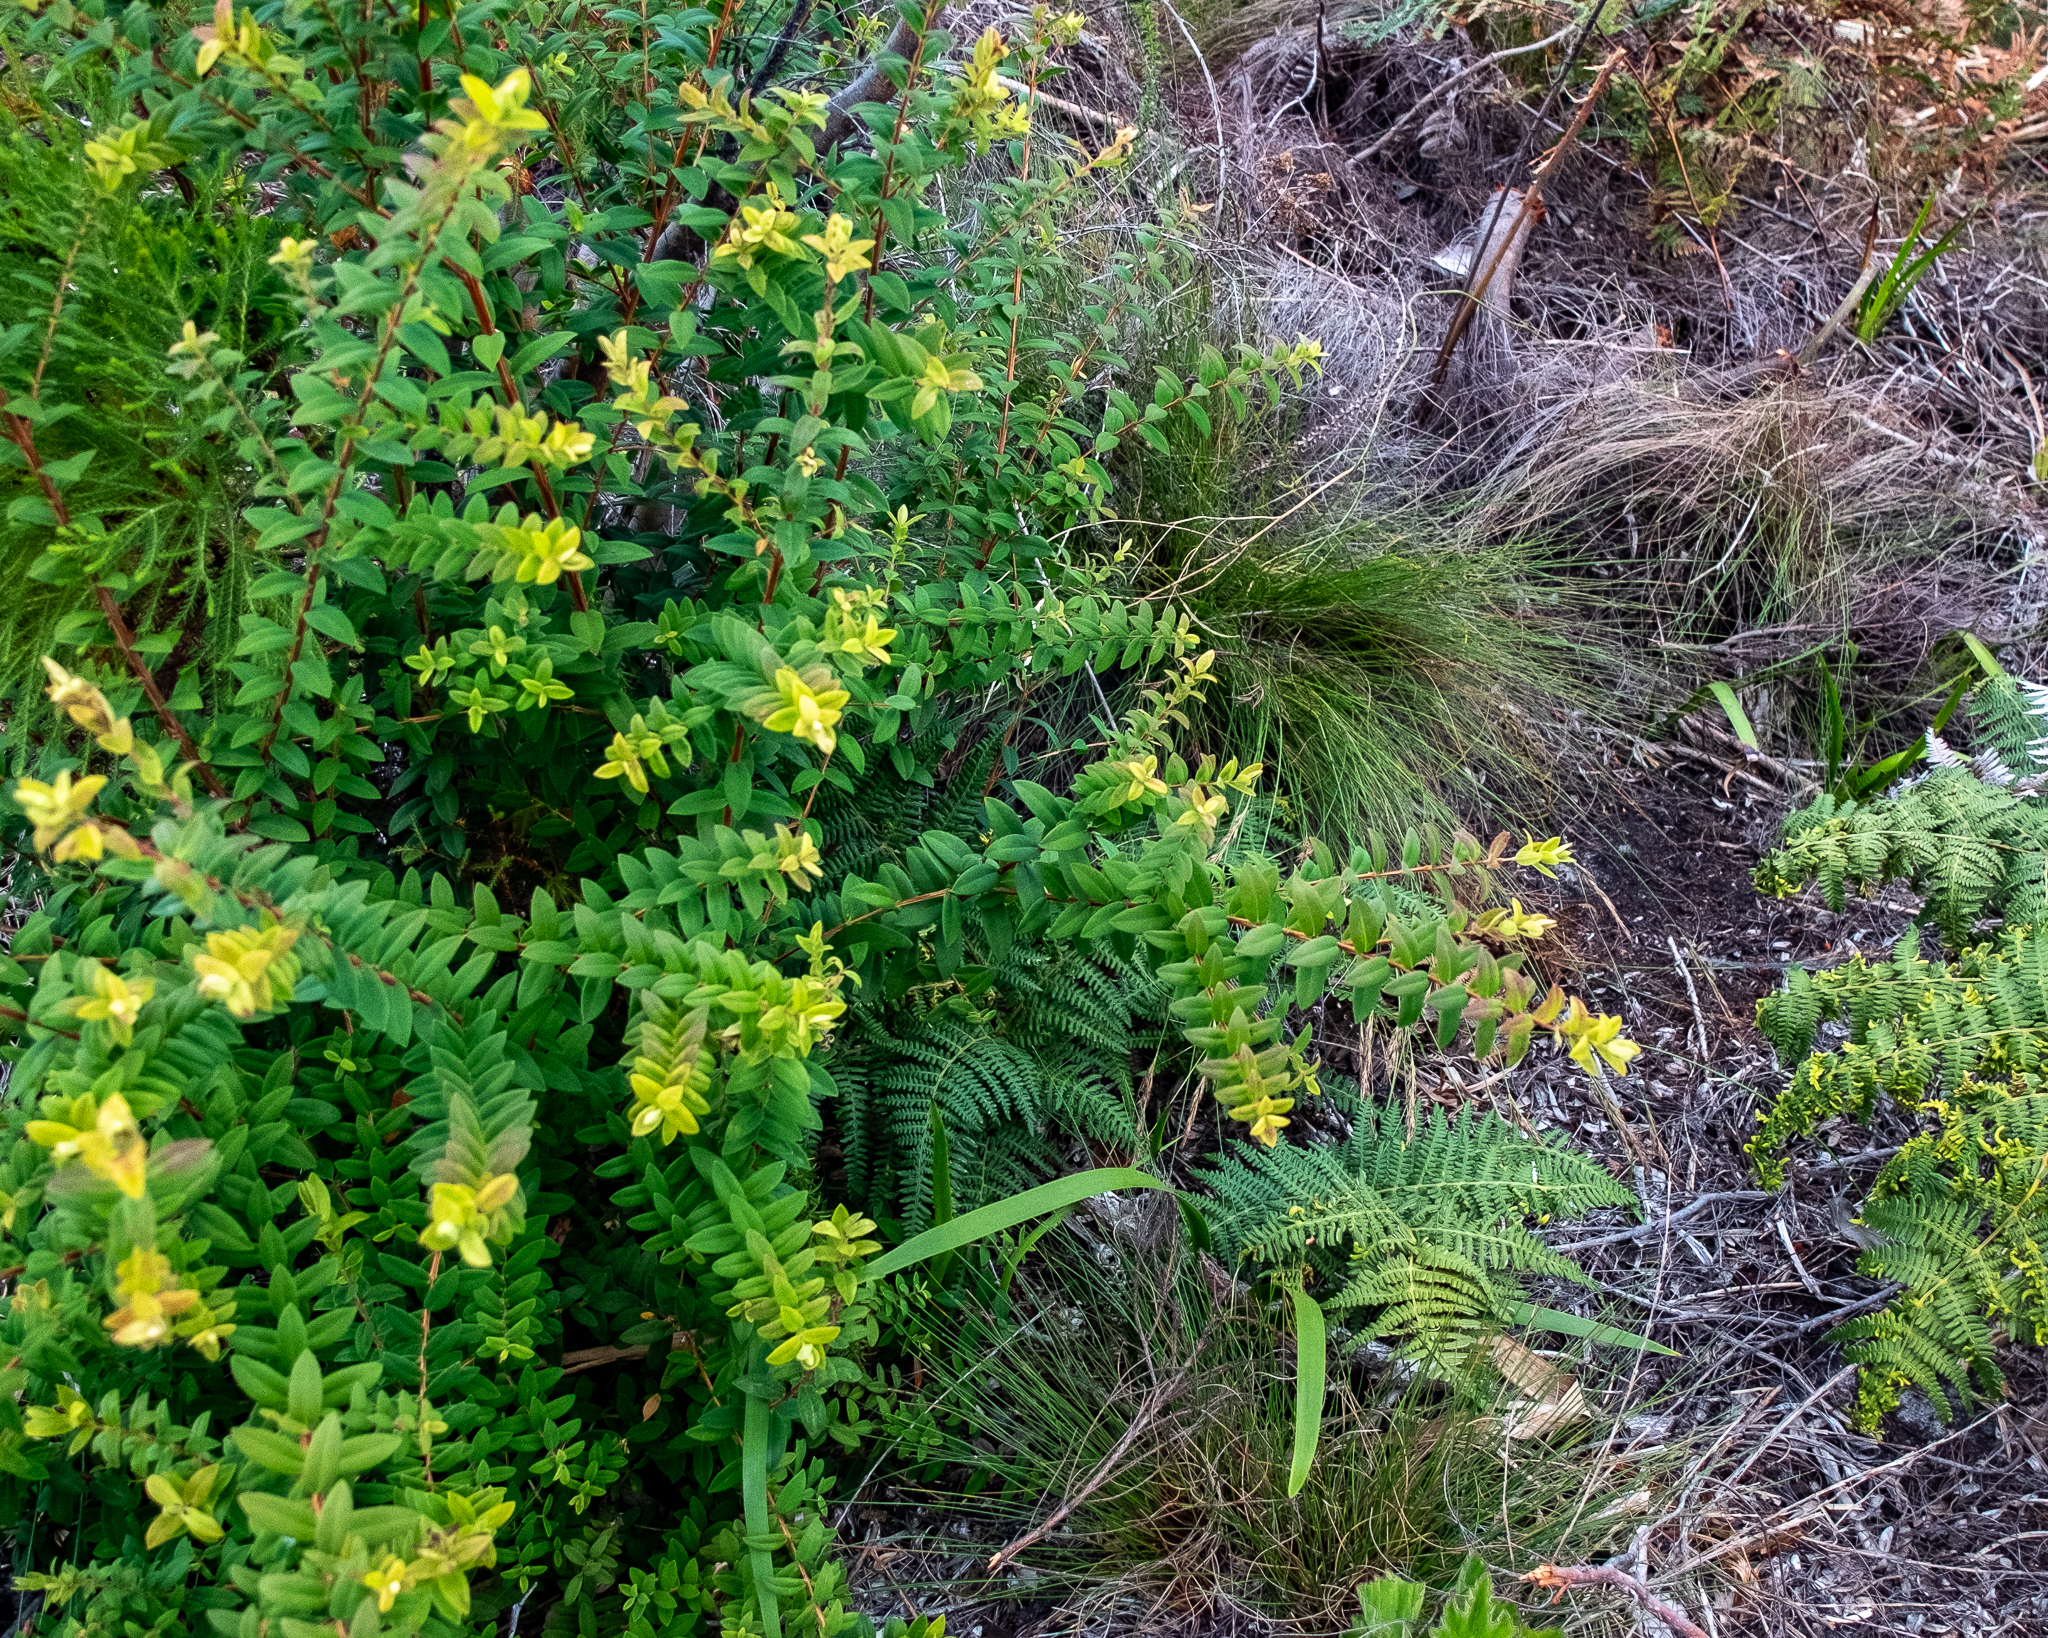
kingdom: Plantae
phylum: Tracheophyta
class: Magnoliopsida
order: Myrtales
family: Myrtaceae
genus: Melaleuca
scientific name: Melaleuca hypericifolia
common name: Red honey myrtle
